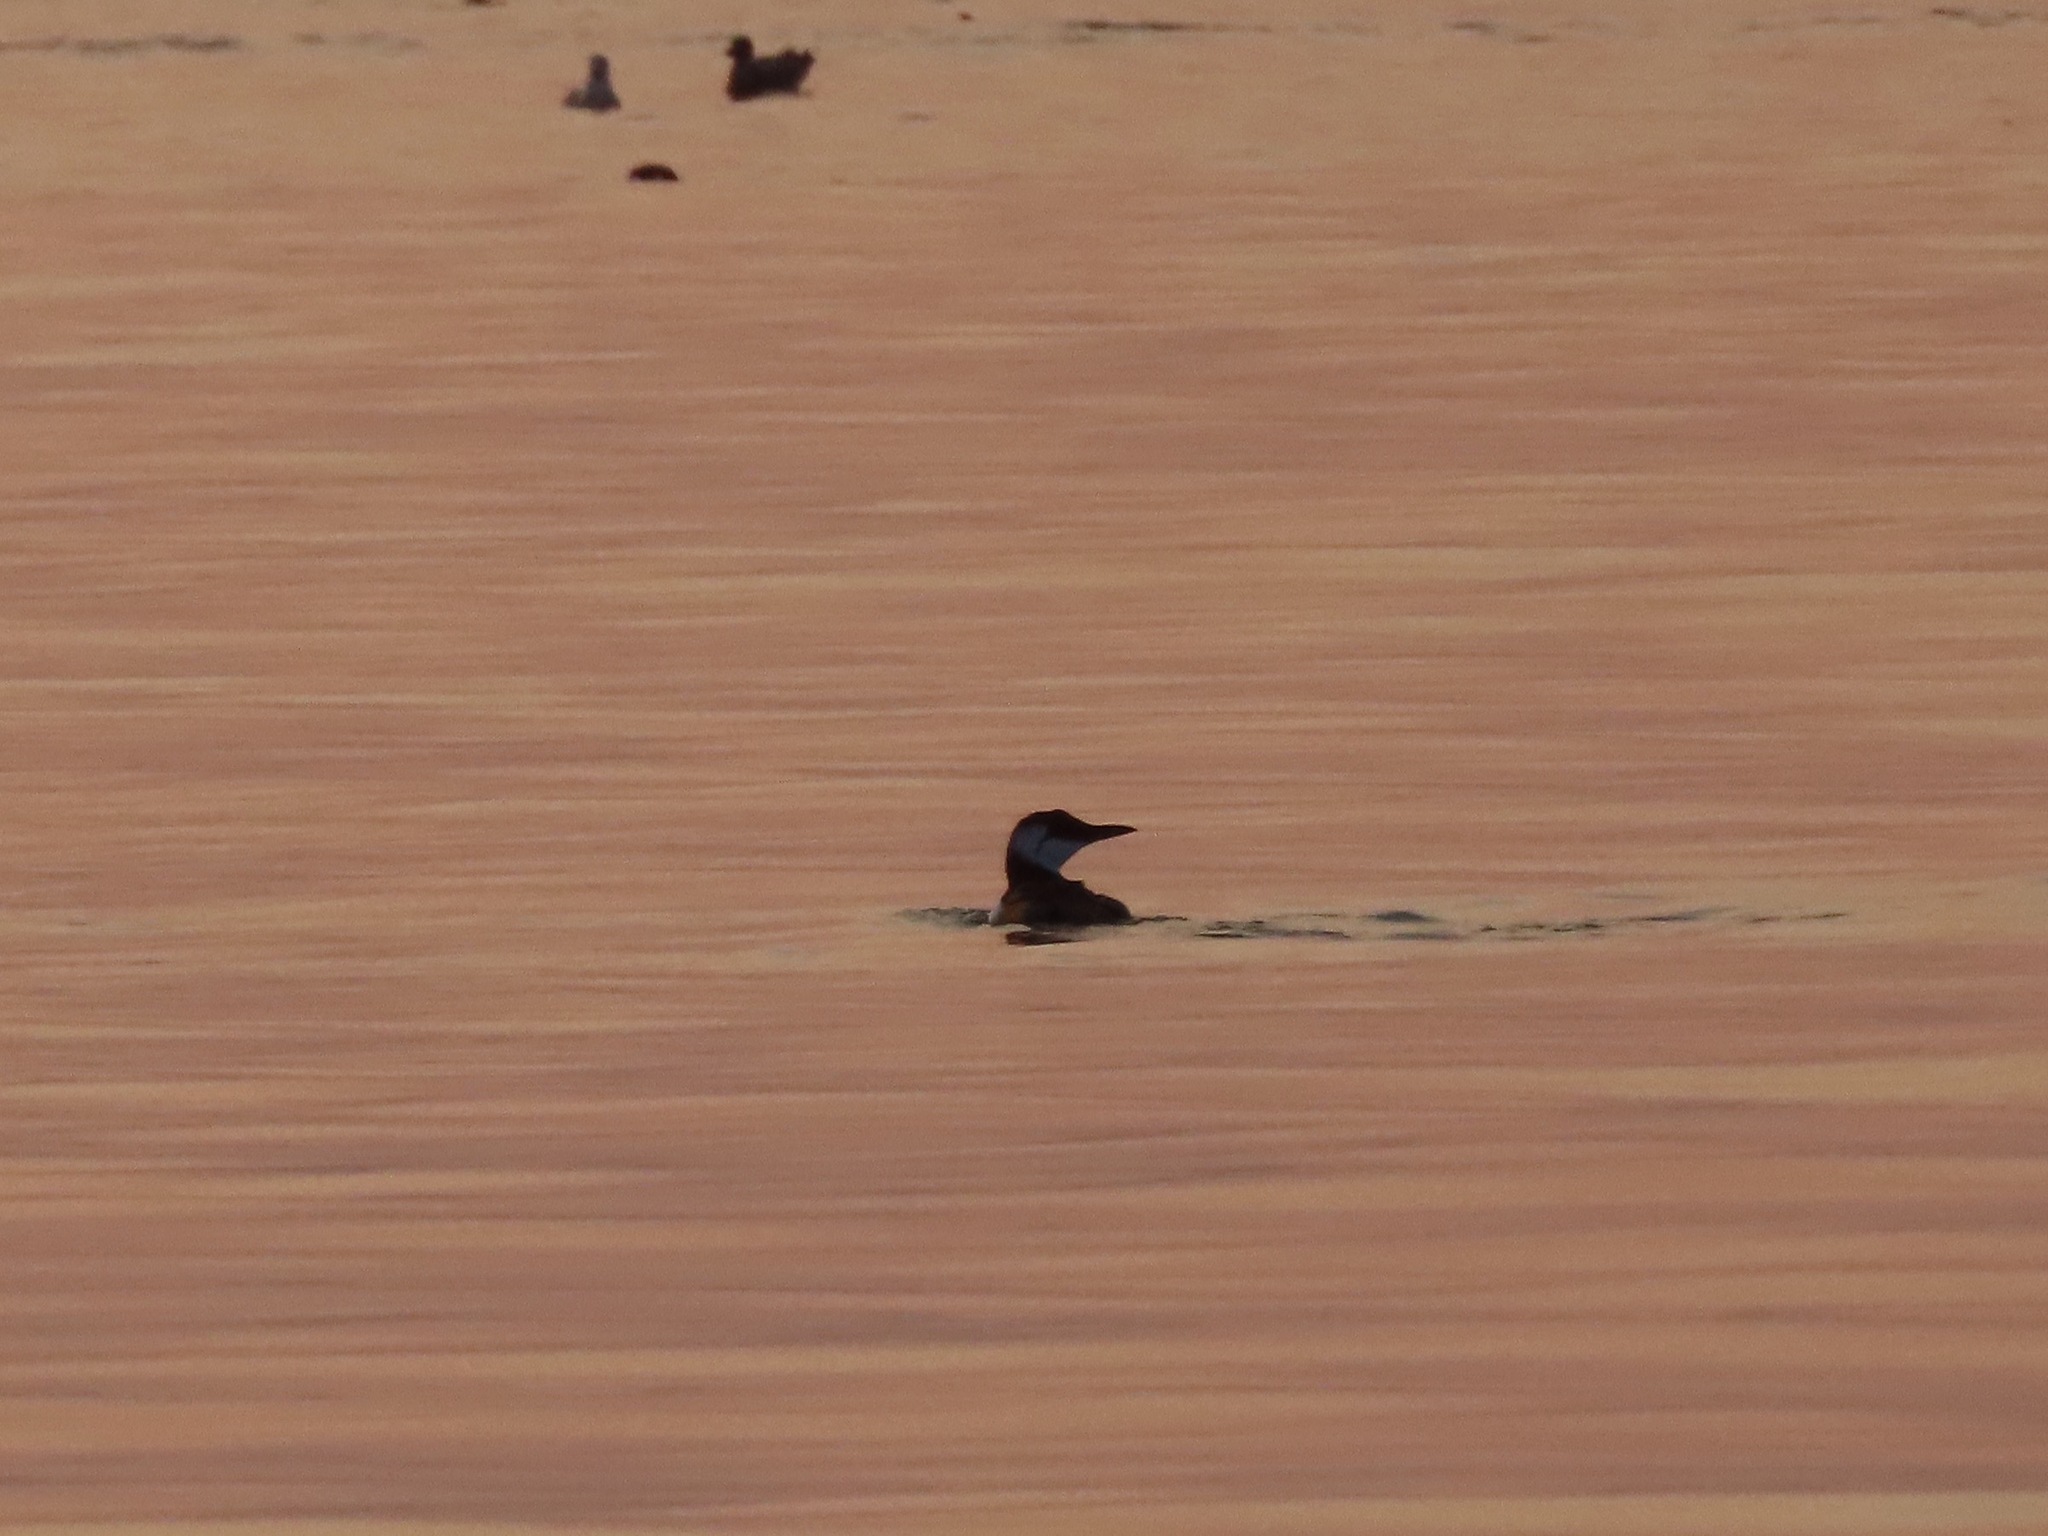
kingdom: Animalia
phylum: Chordata
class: Aves
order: Charadriiformes
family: Alcidae
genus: Uria
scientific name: Uria aalge
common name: Common murre
